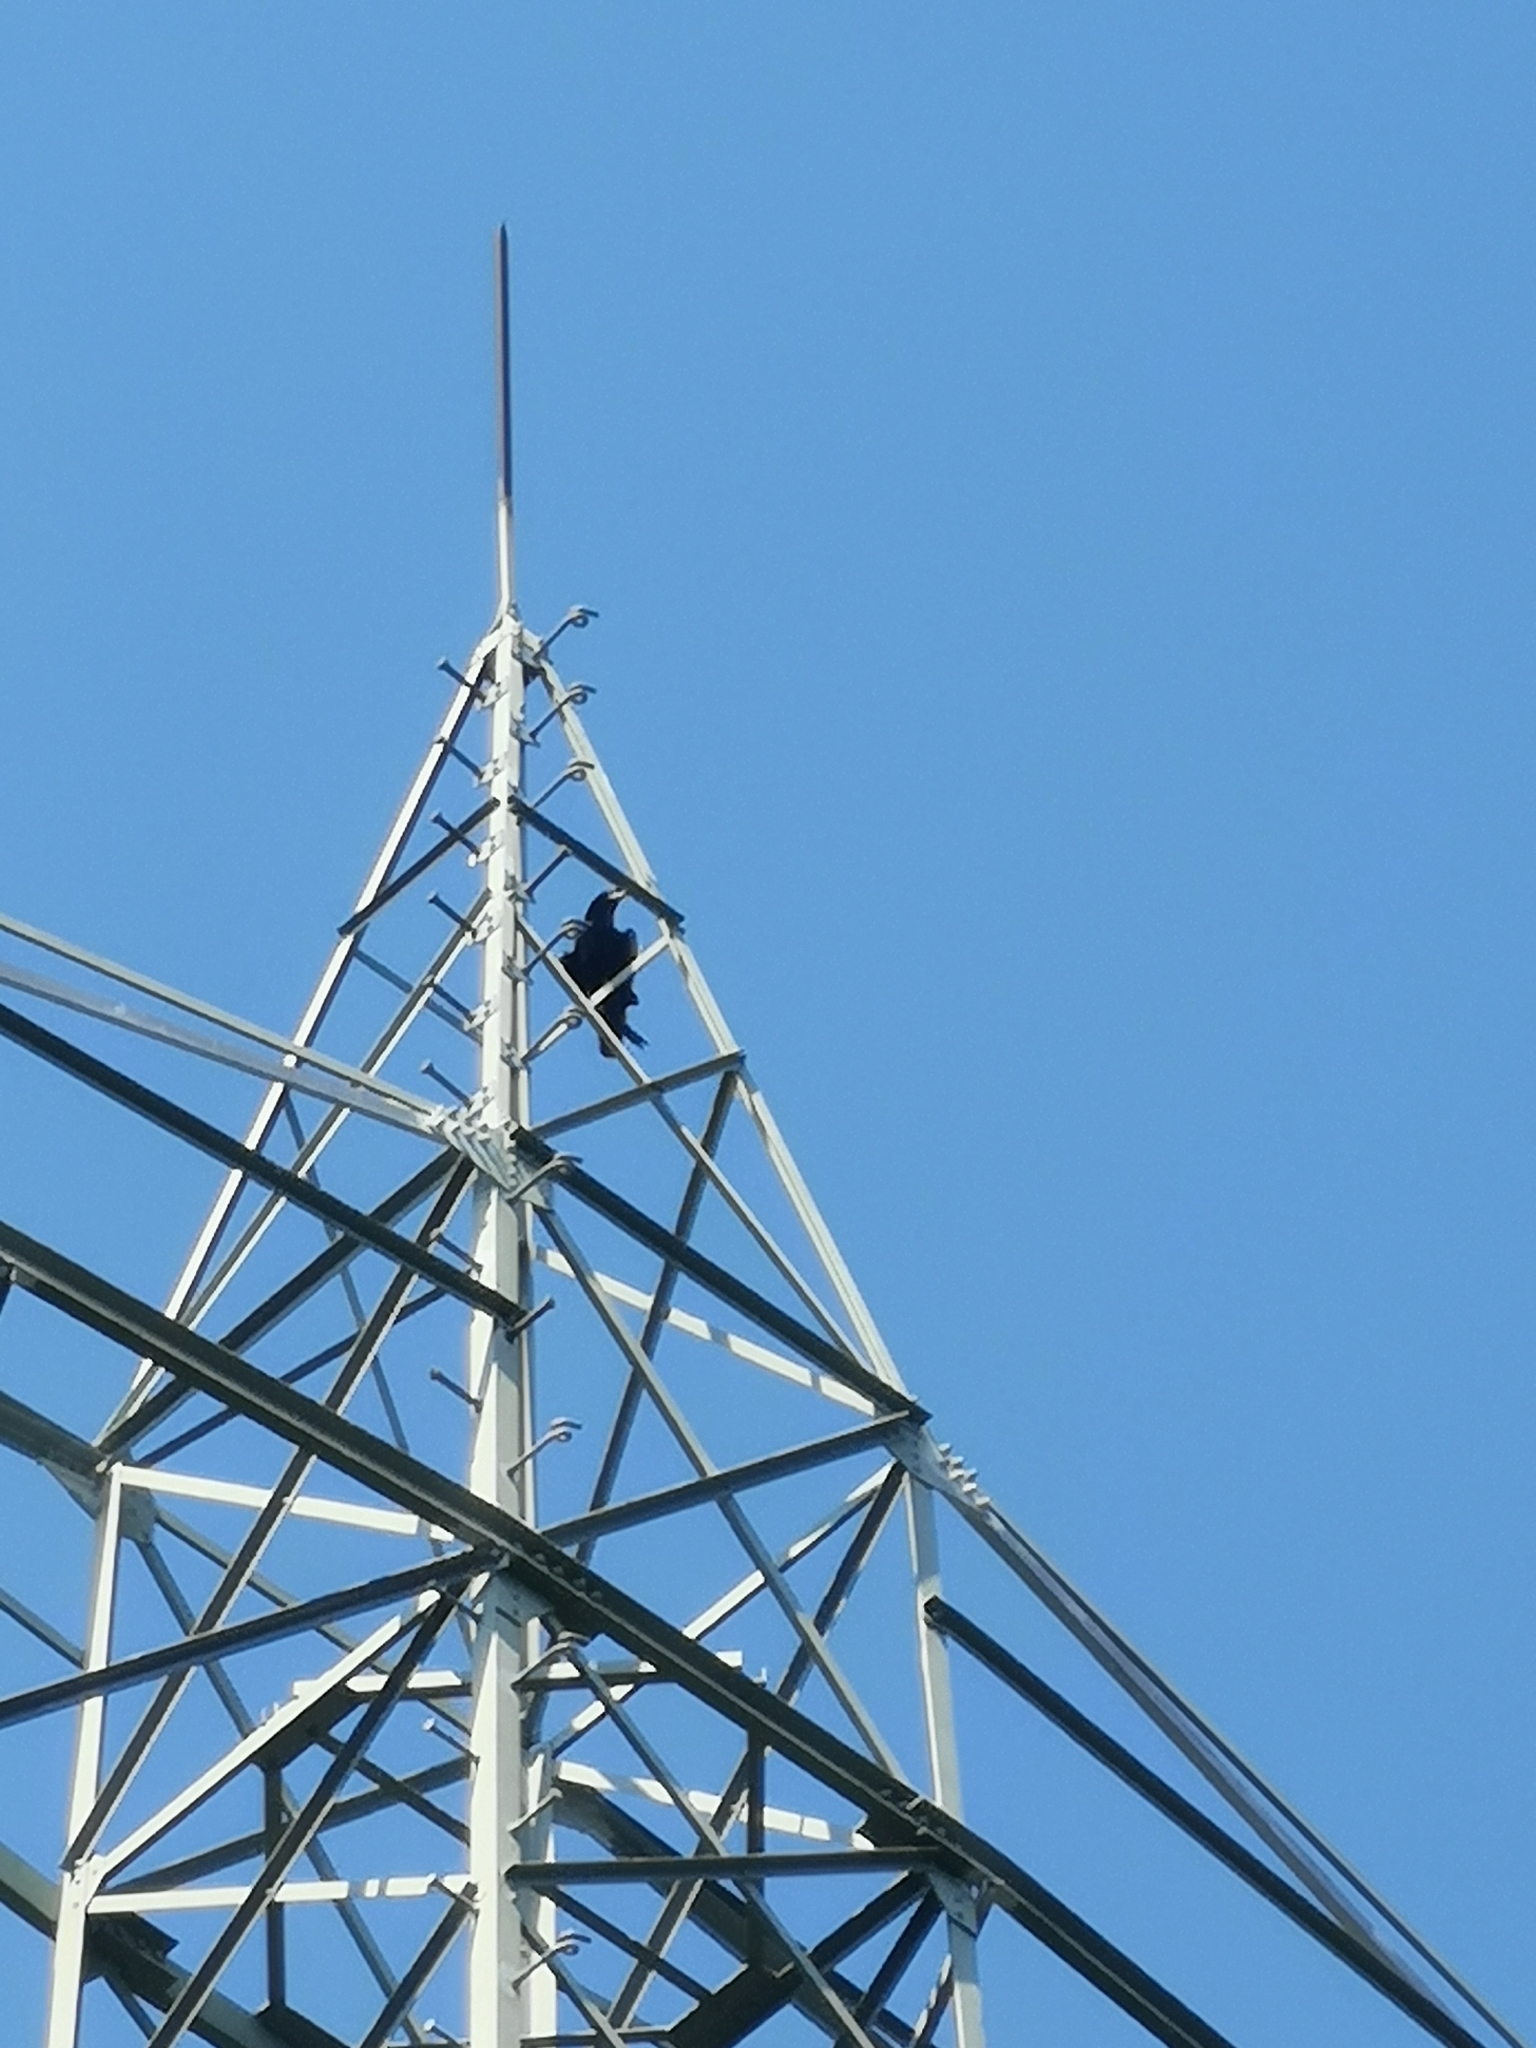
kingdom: Animalia
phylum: Chordata
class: Aves
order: Passeriformes
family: Corvidae
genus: Corvus
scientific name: Corvus corax
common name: Common raven
